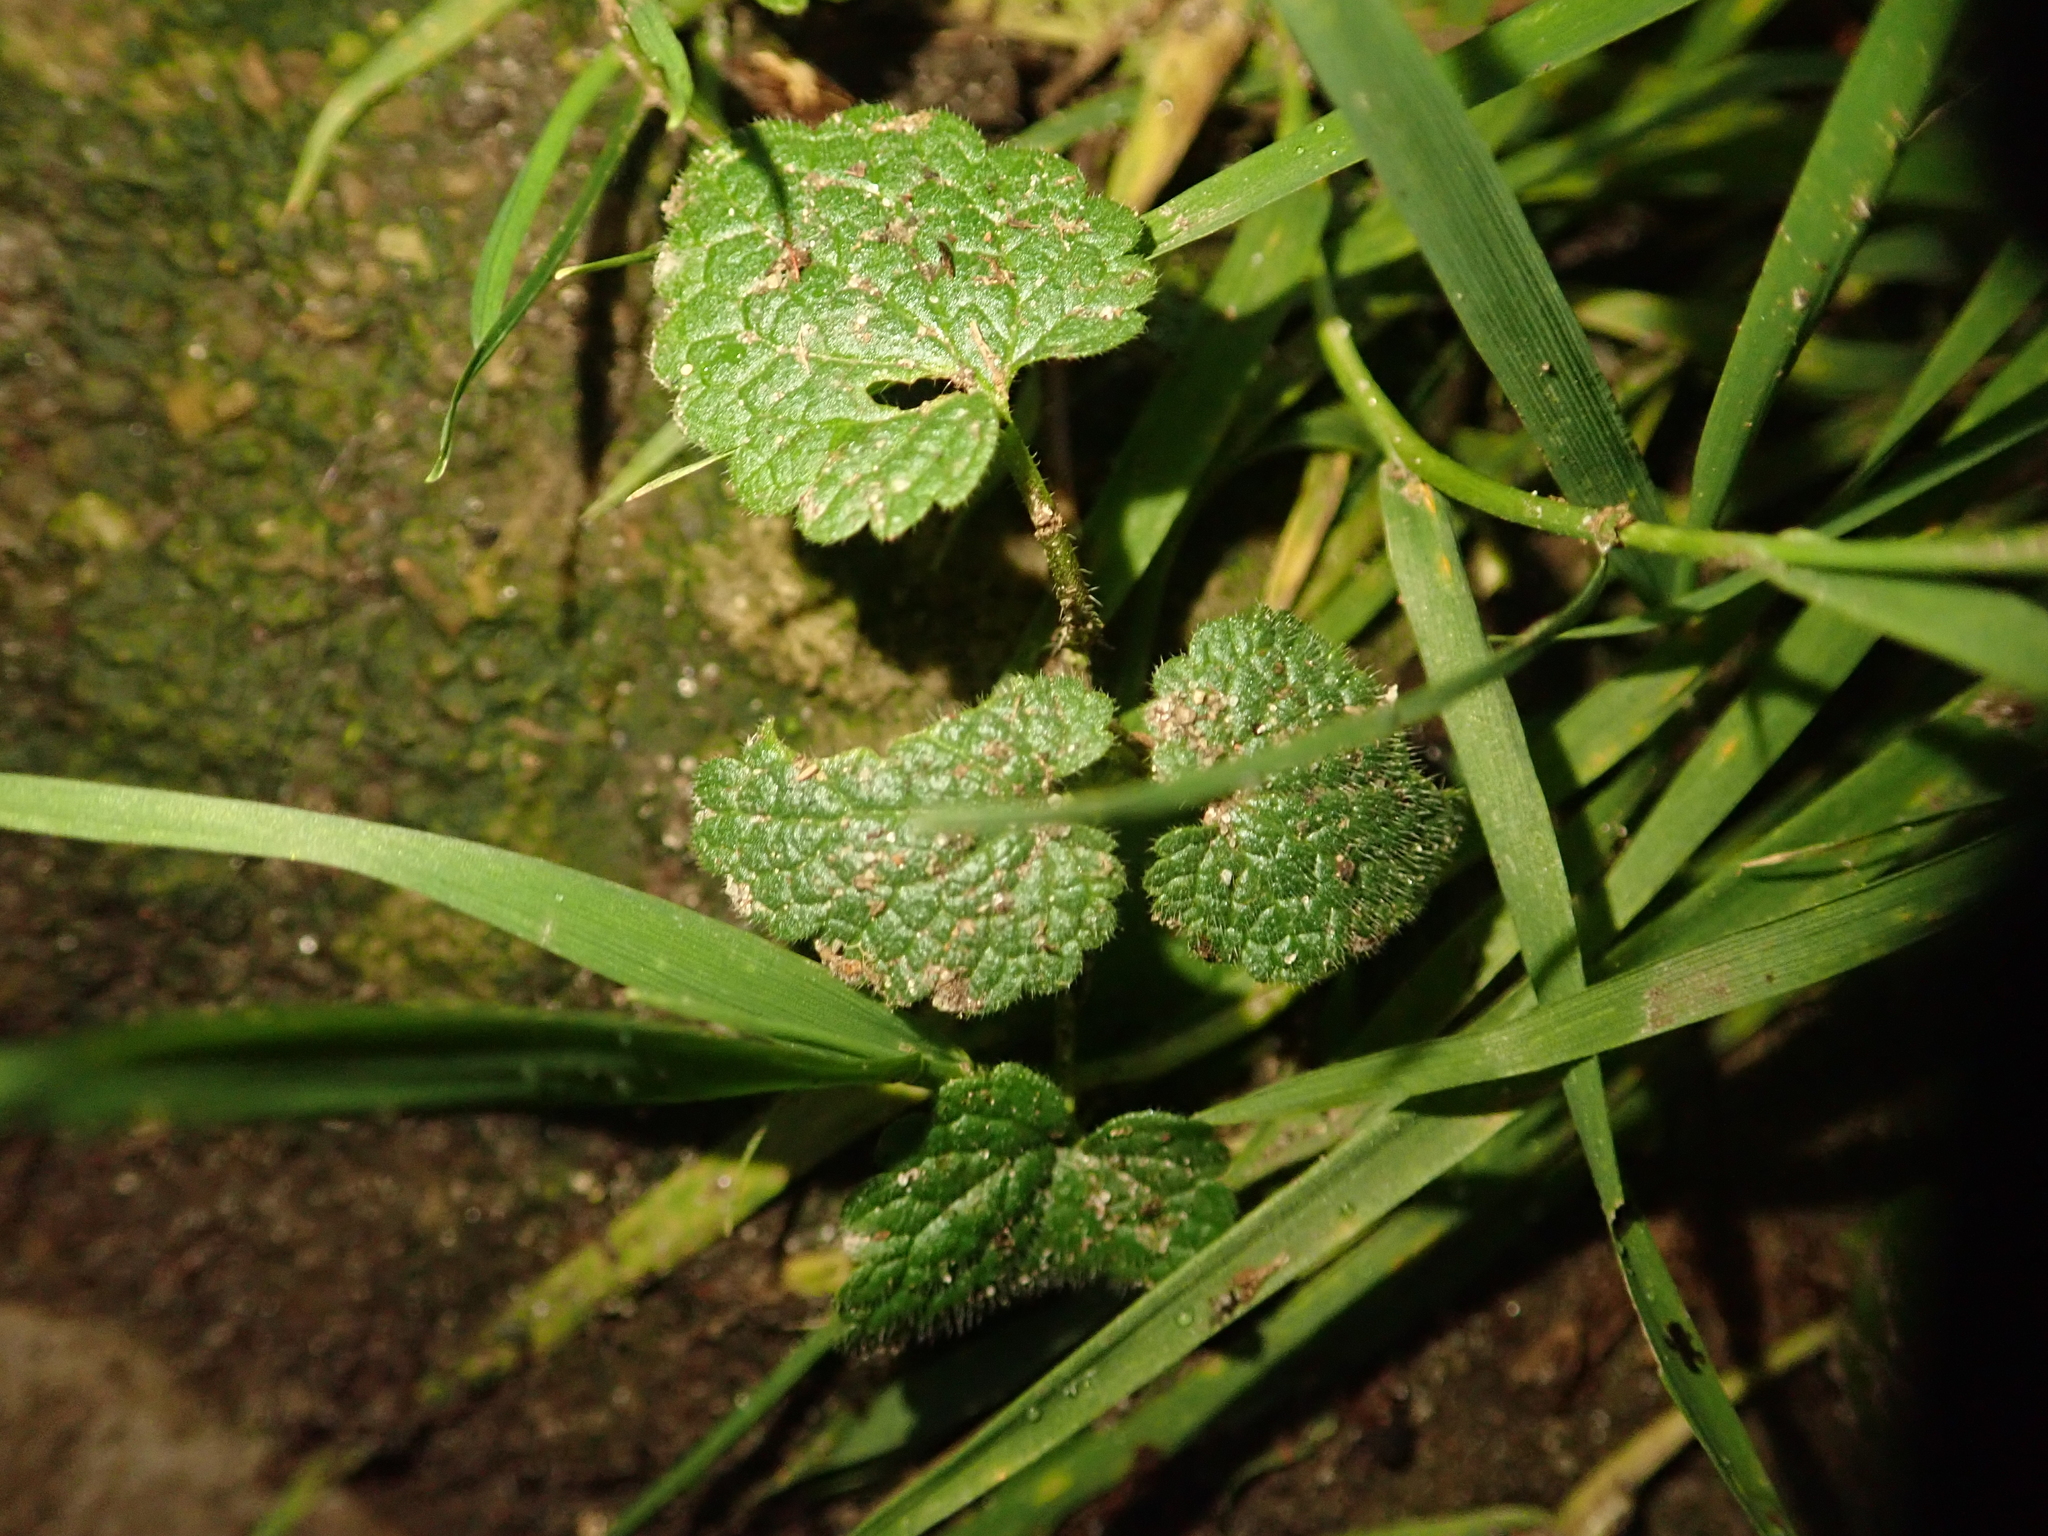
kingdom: Plantae
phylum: Tracheophyta
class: Magnoliopsida
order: Lamiales
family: Lamiaceae
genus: Lamium
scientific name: Lamium purpureum
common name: Red dead-nettle
